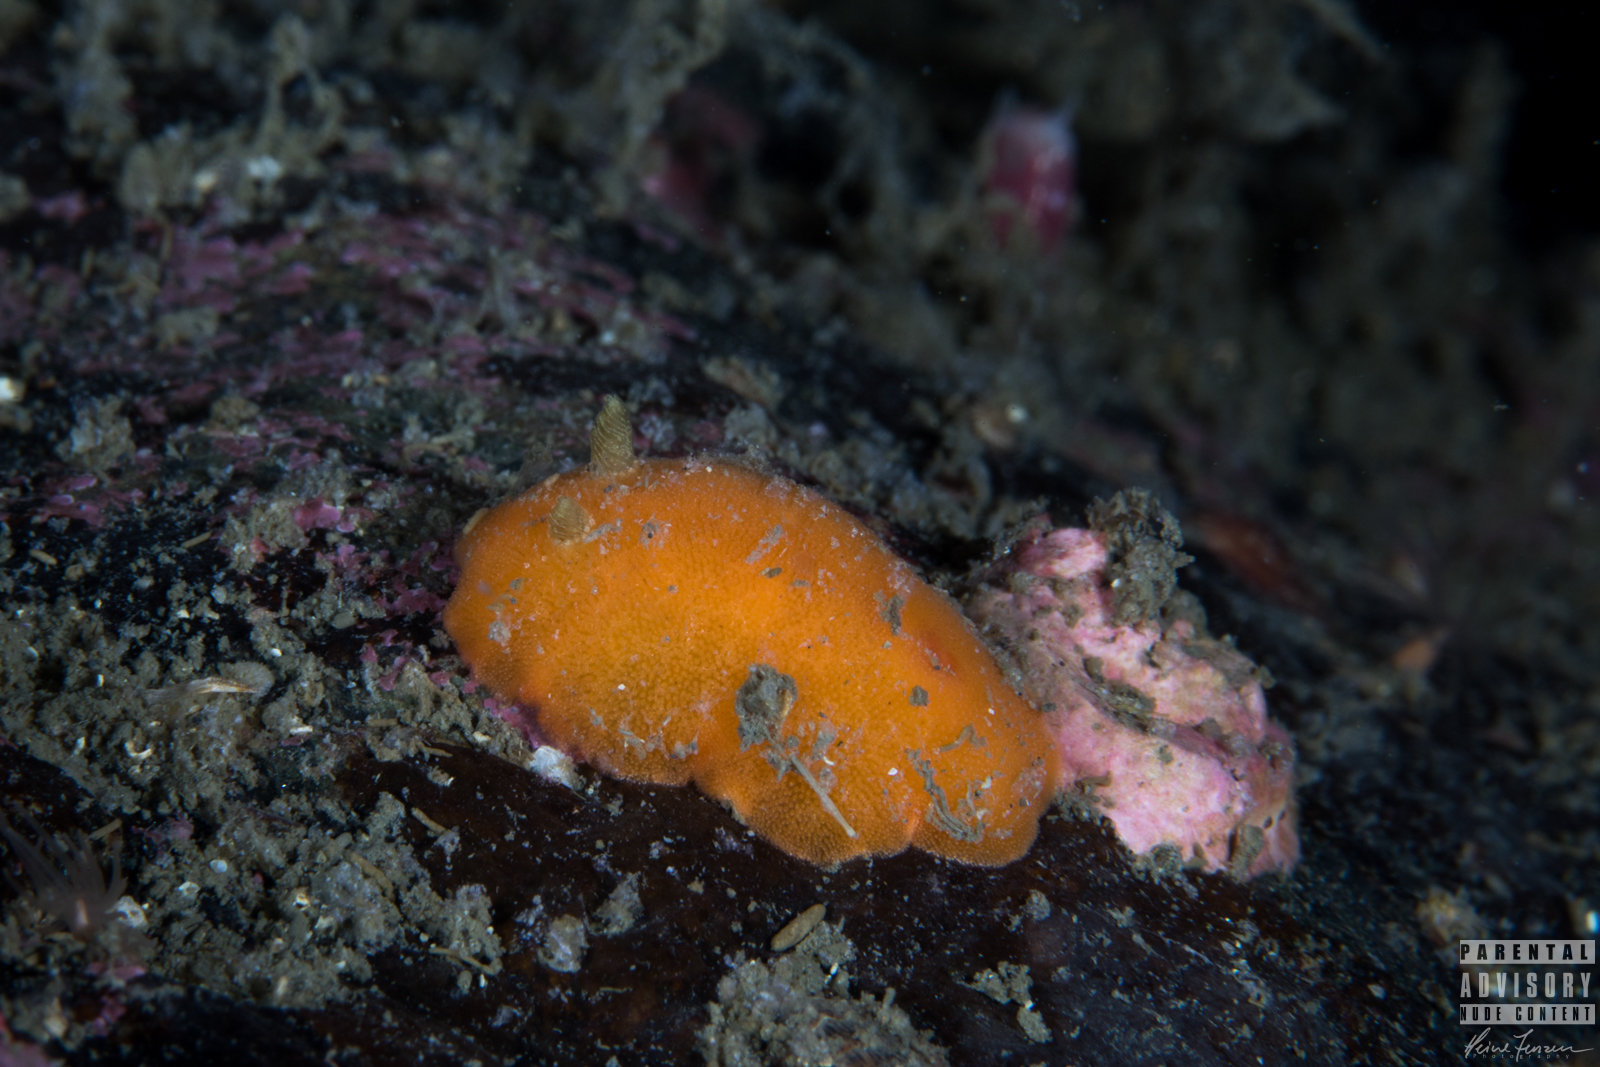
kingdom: Animalia
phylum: Mollusca
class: Gastropoda
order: Nudibranchia
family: Discodorididae
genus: Rostanga
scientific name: Rostanga rubra
